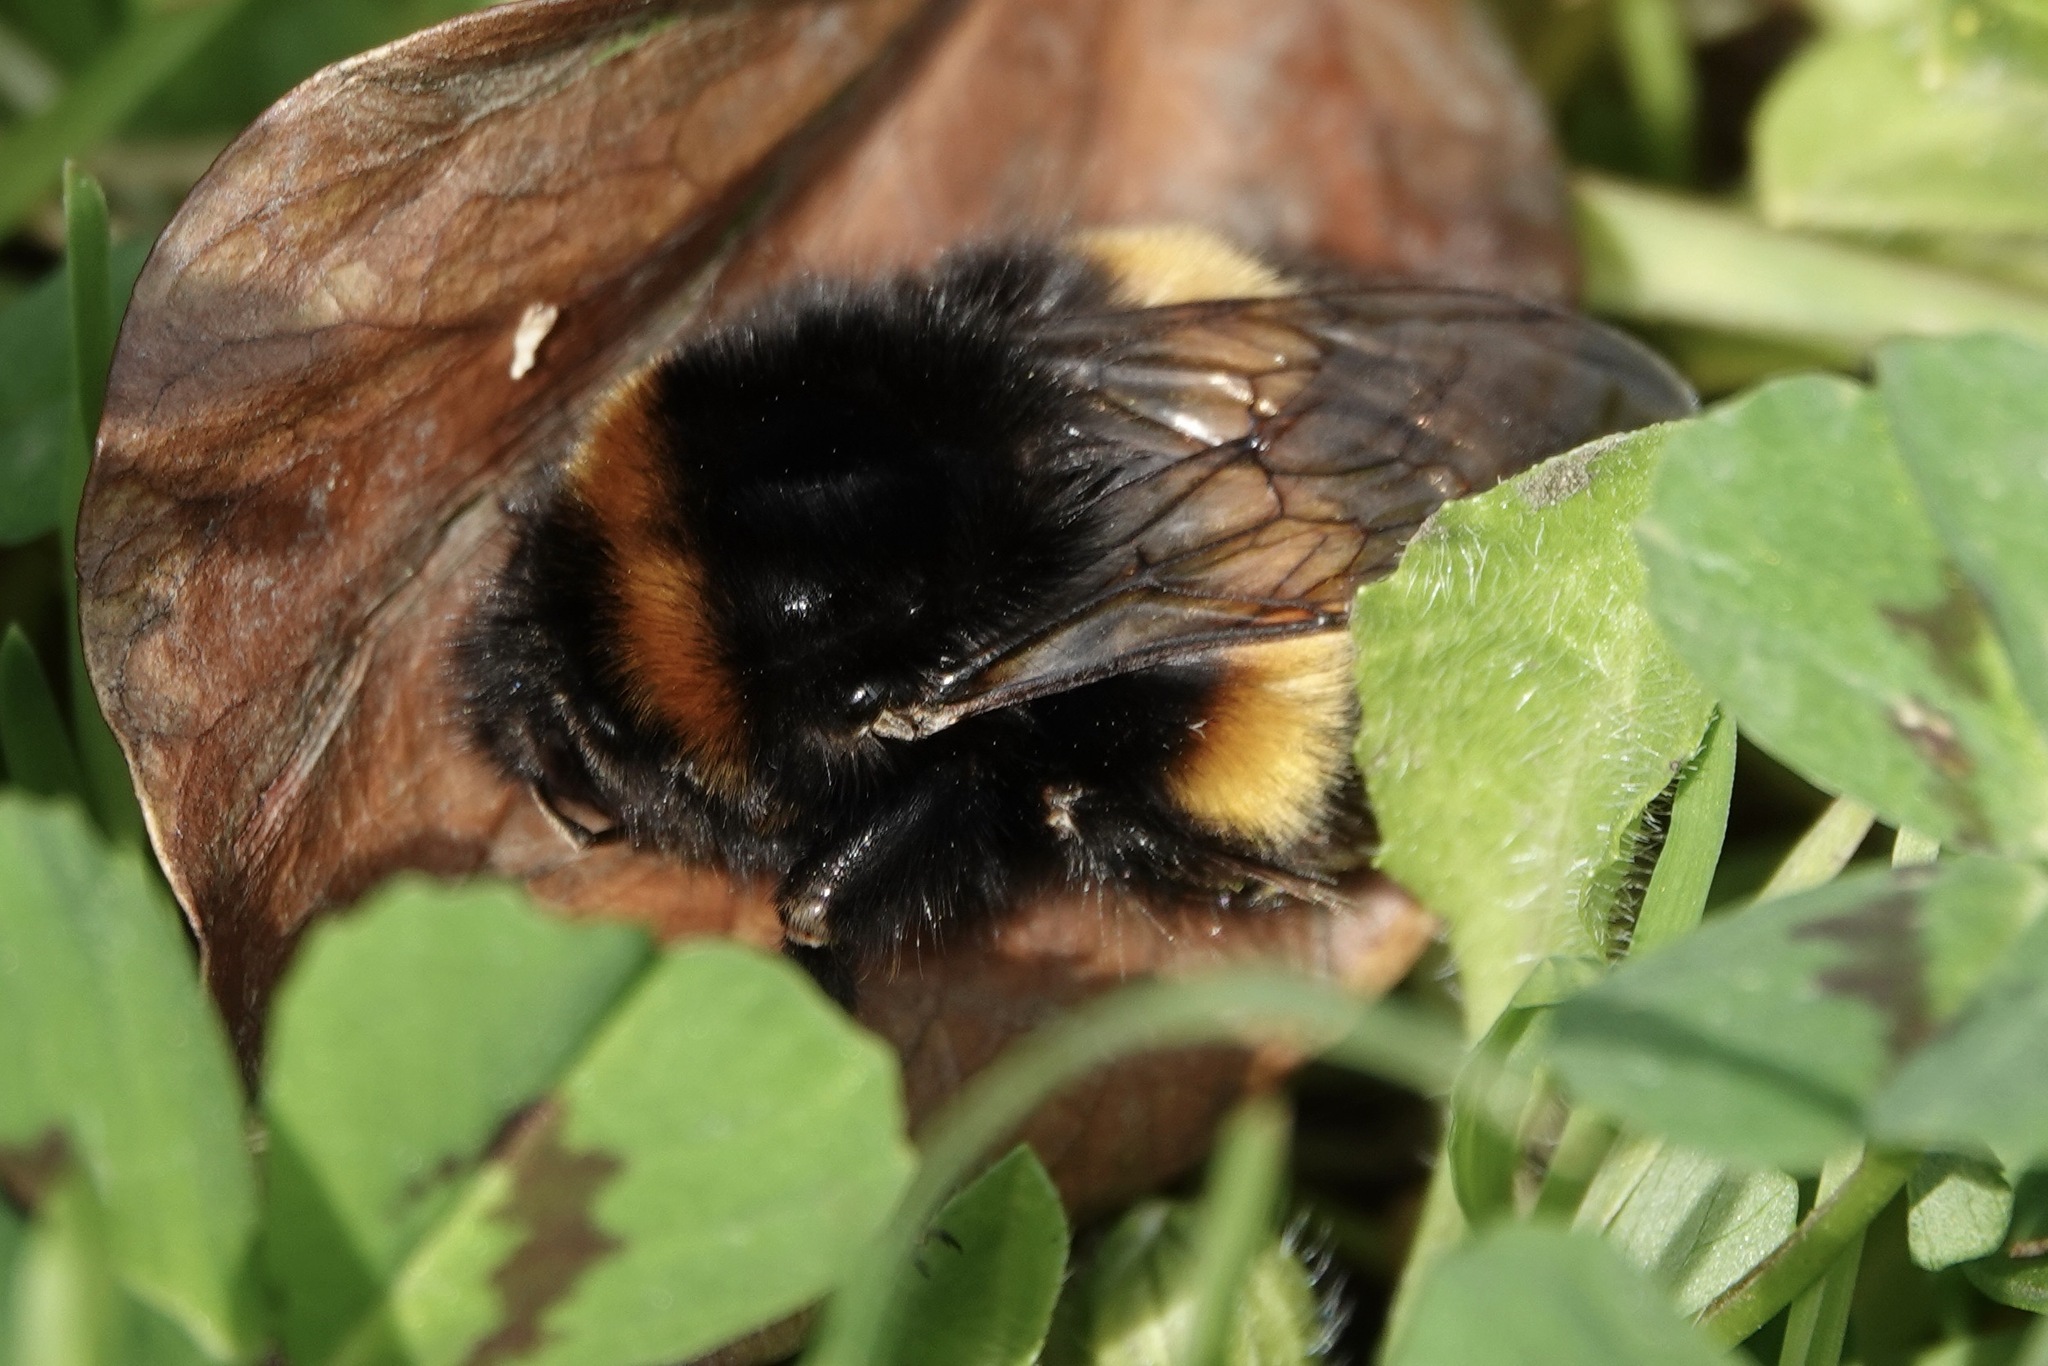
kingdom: Animalia
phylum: Arthropoda
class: Insecta
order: Hymenoptera
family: Apidae
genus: Bombus
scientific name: Bombus terrestris
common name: Buff-tailed bumblebee
